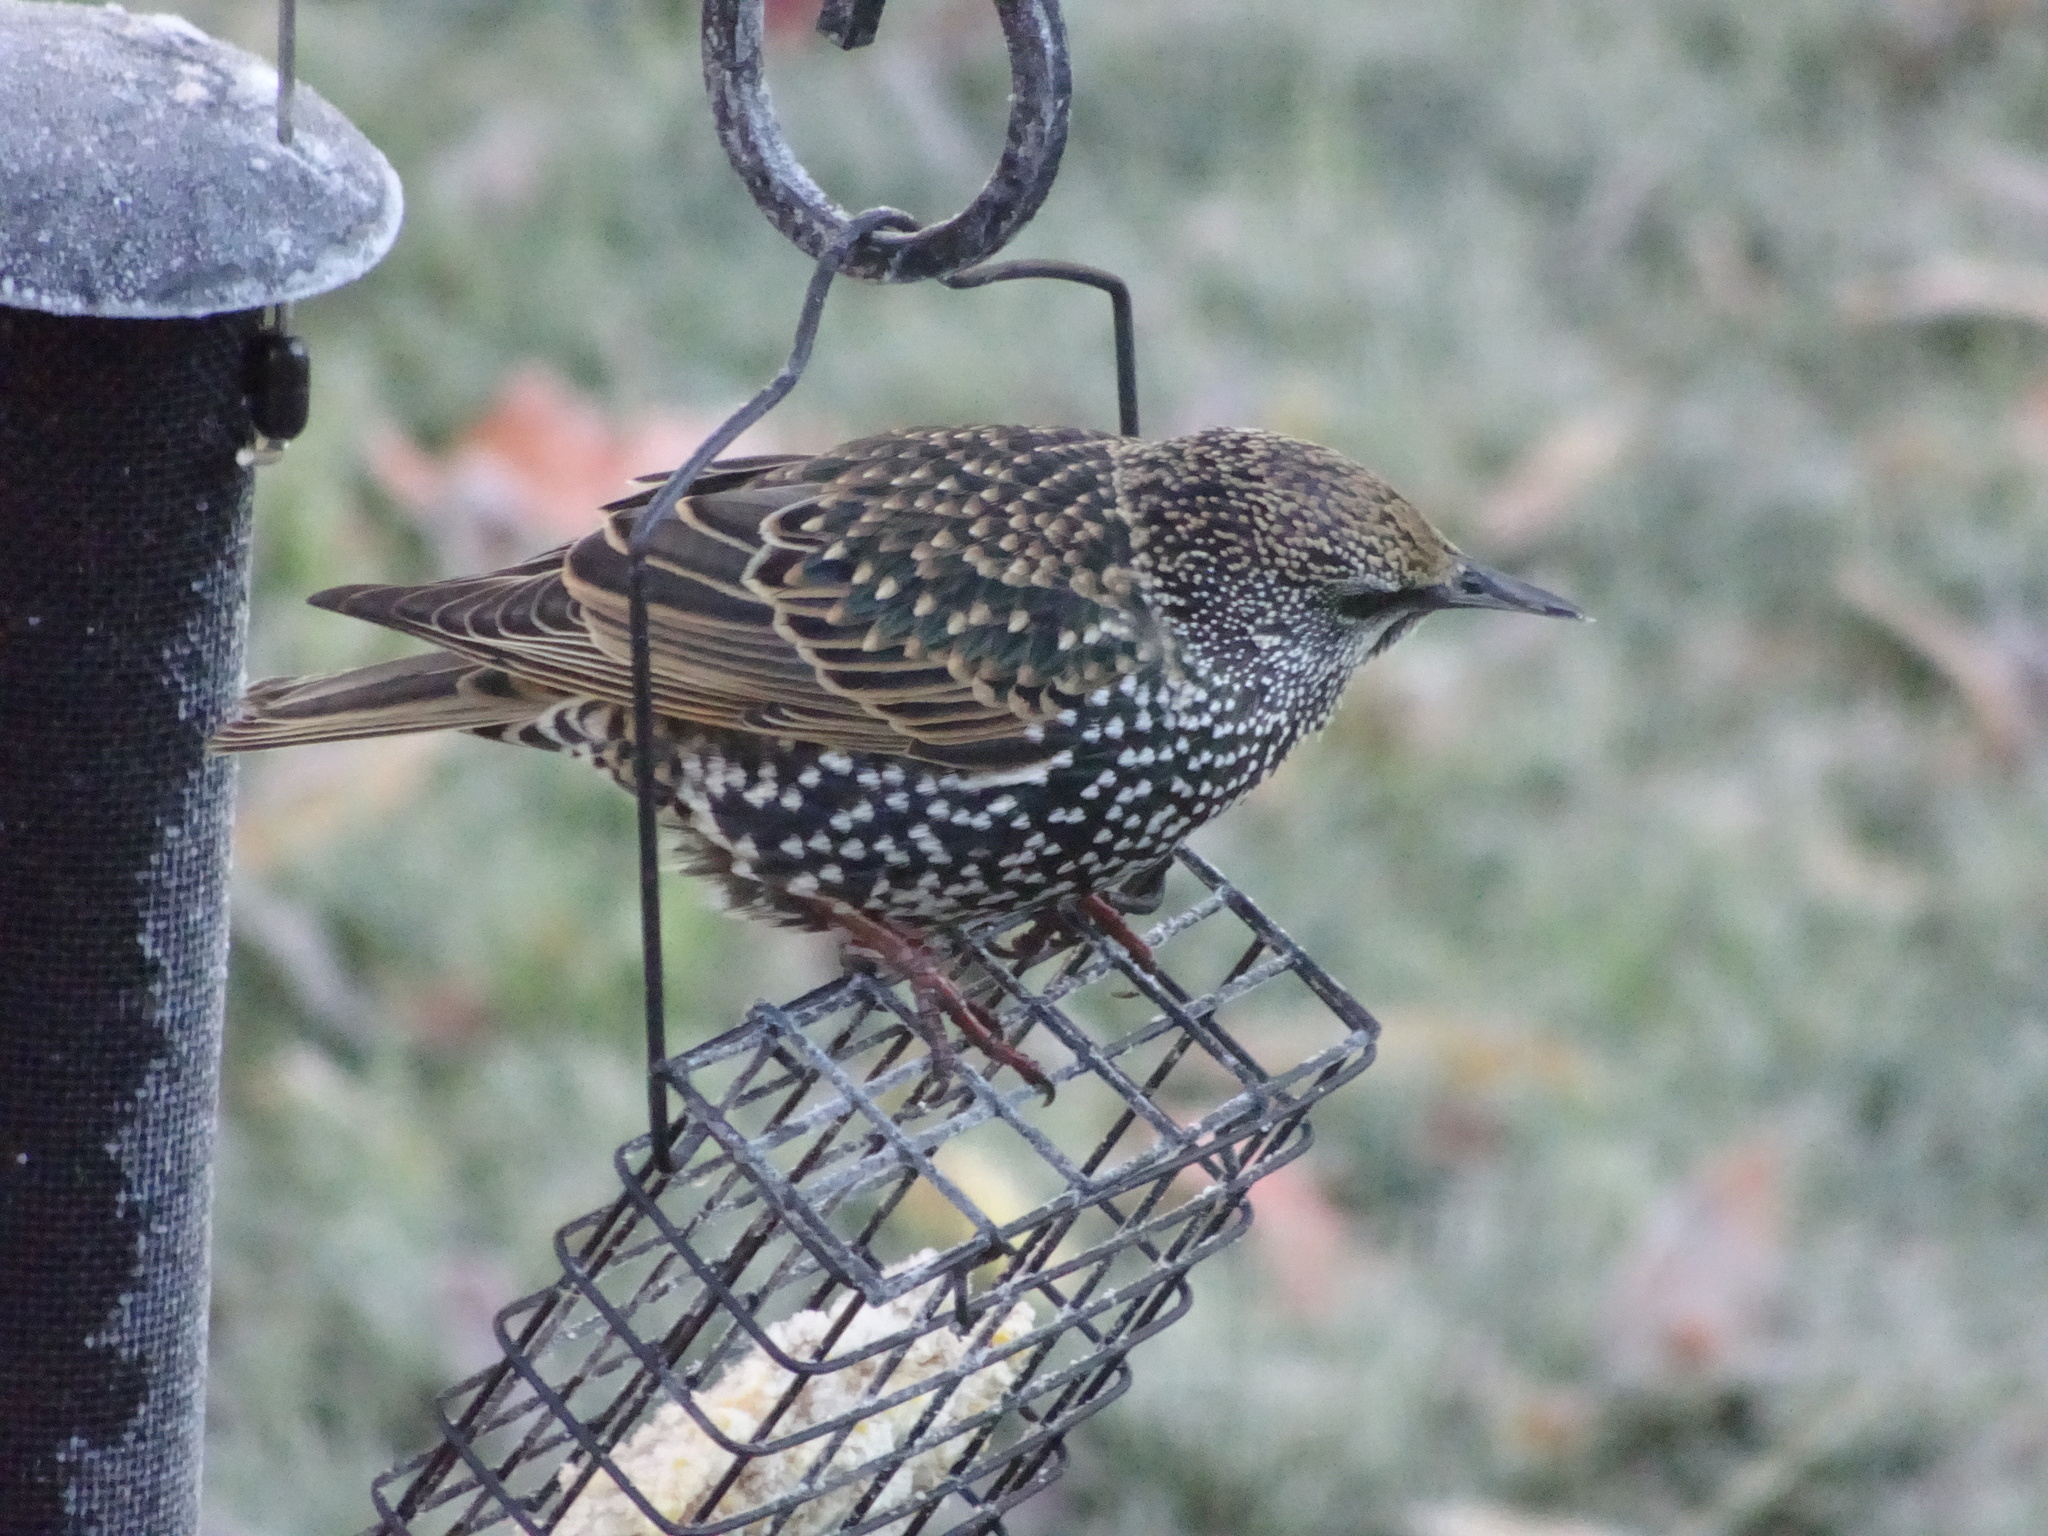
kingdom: Animalia
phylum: Chordata
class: Aves
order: Passeriformes
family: Sturnidae
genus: Sturnus
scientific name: Sturnus vulgaris
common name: Common starling
